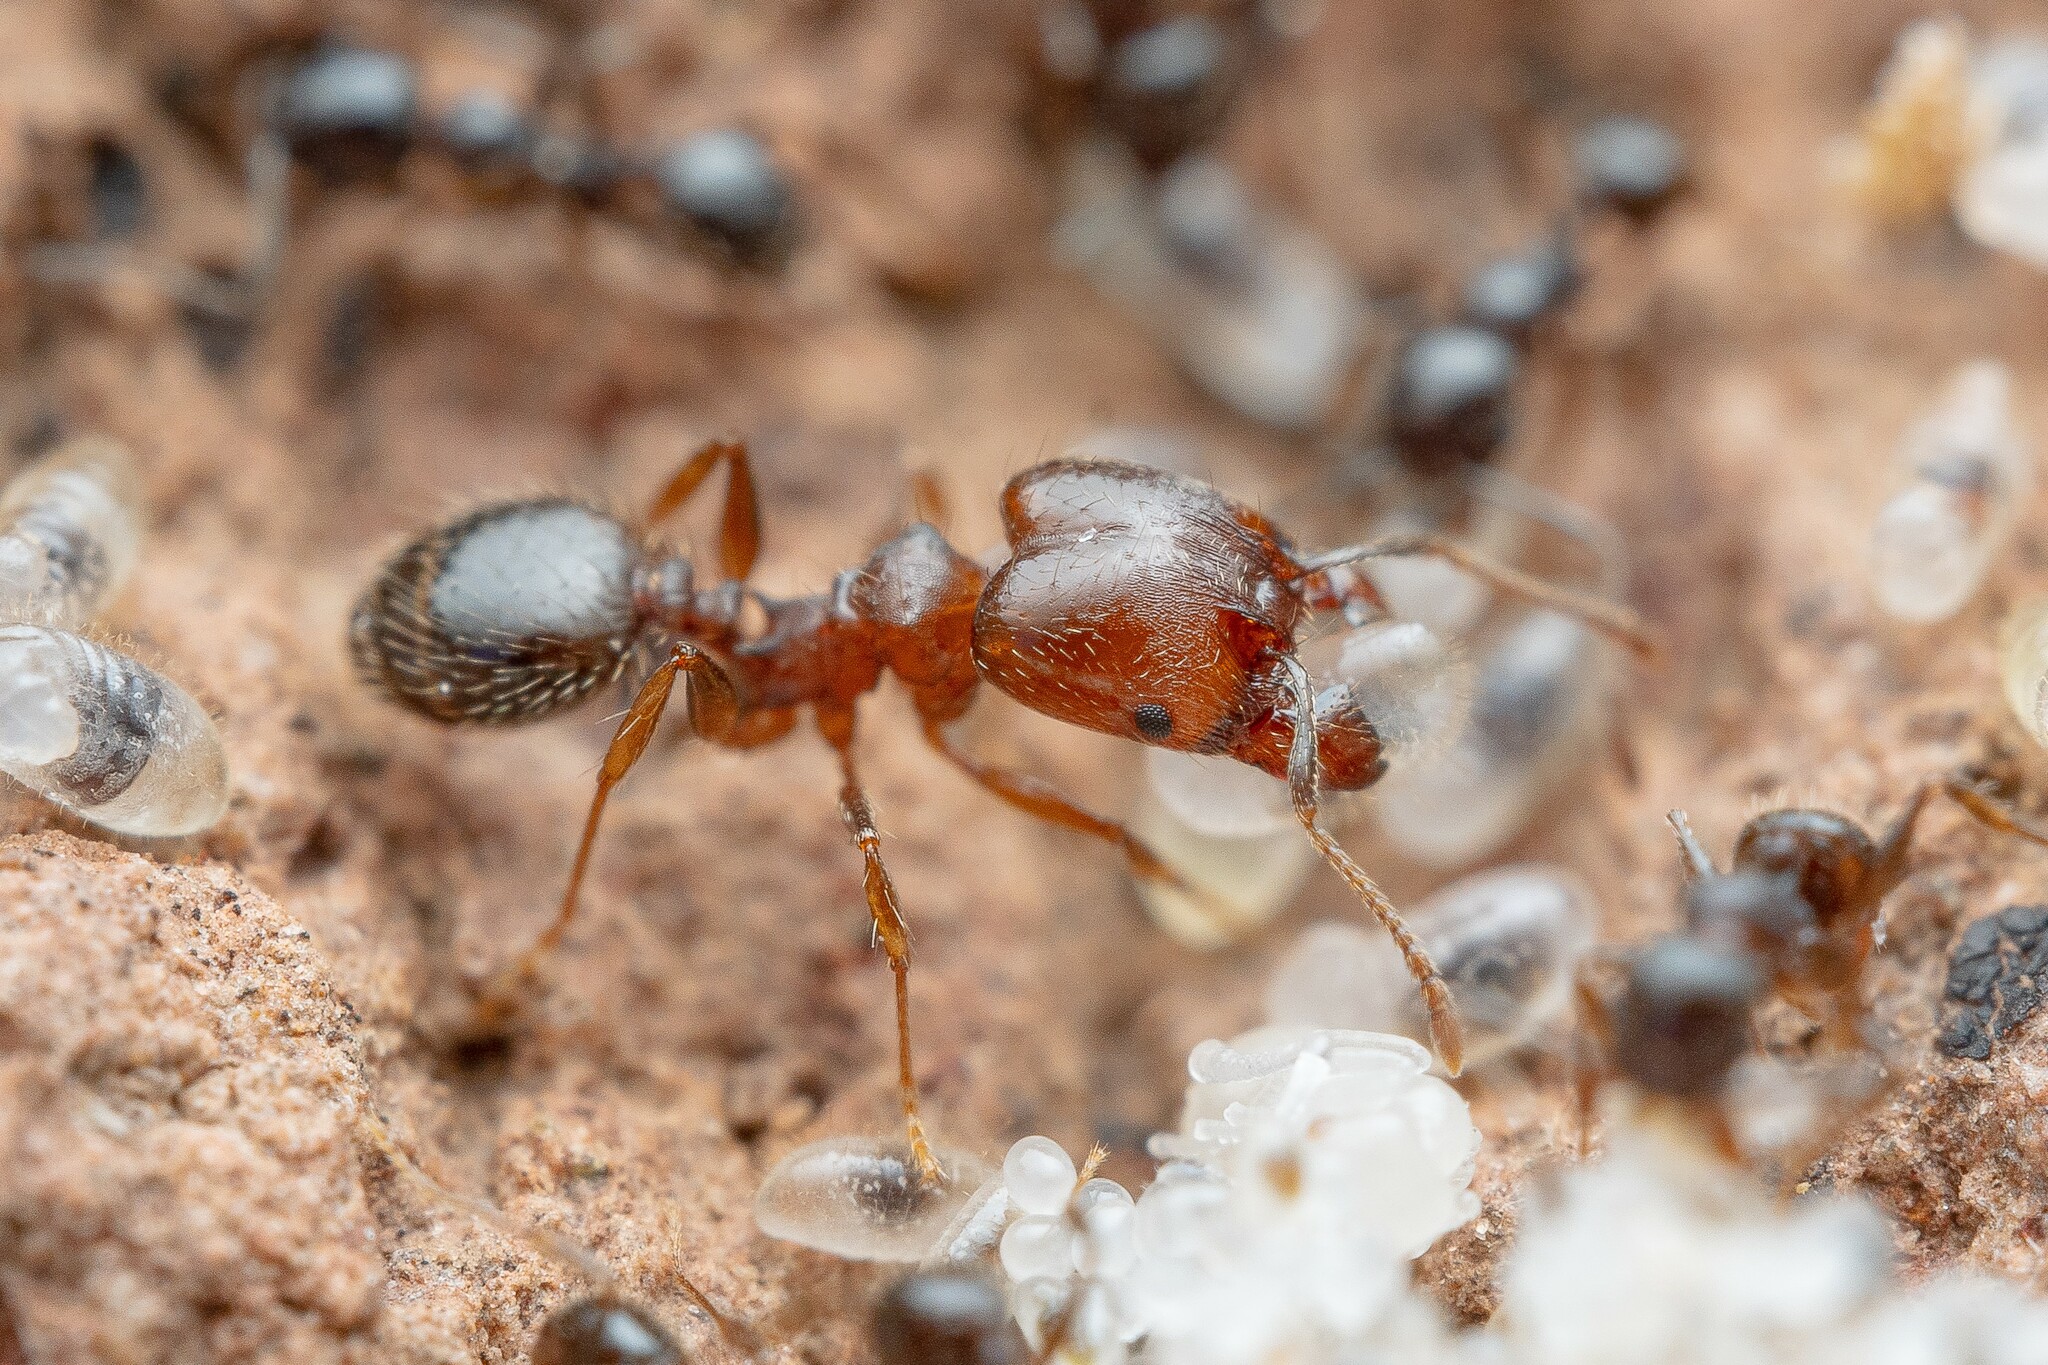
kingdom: Animalia
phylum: Arthropoda
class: Insecta
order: Hymenoptera
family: Formicidae
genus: Pheidole
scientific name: Pheidole sciophila
